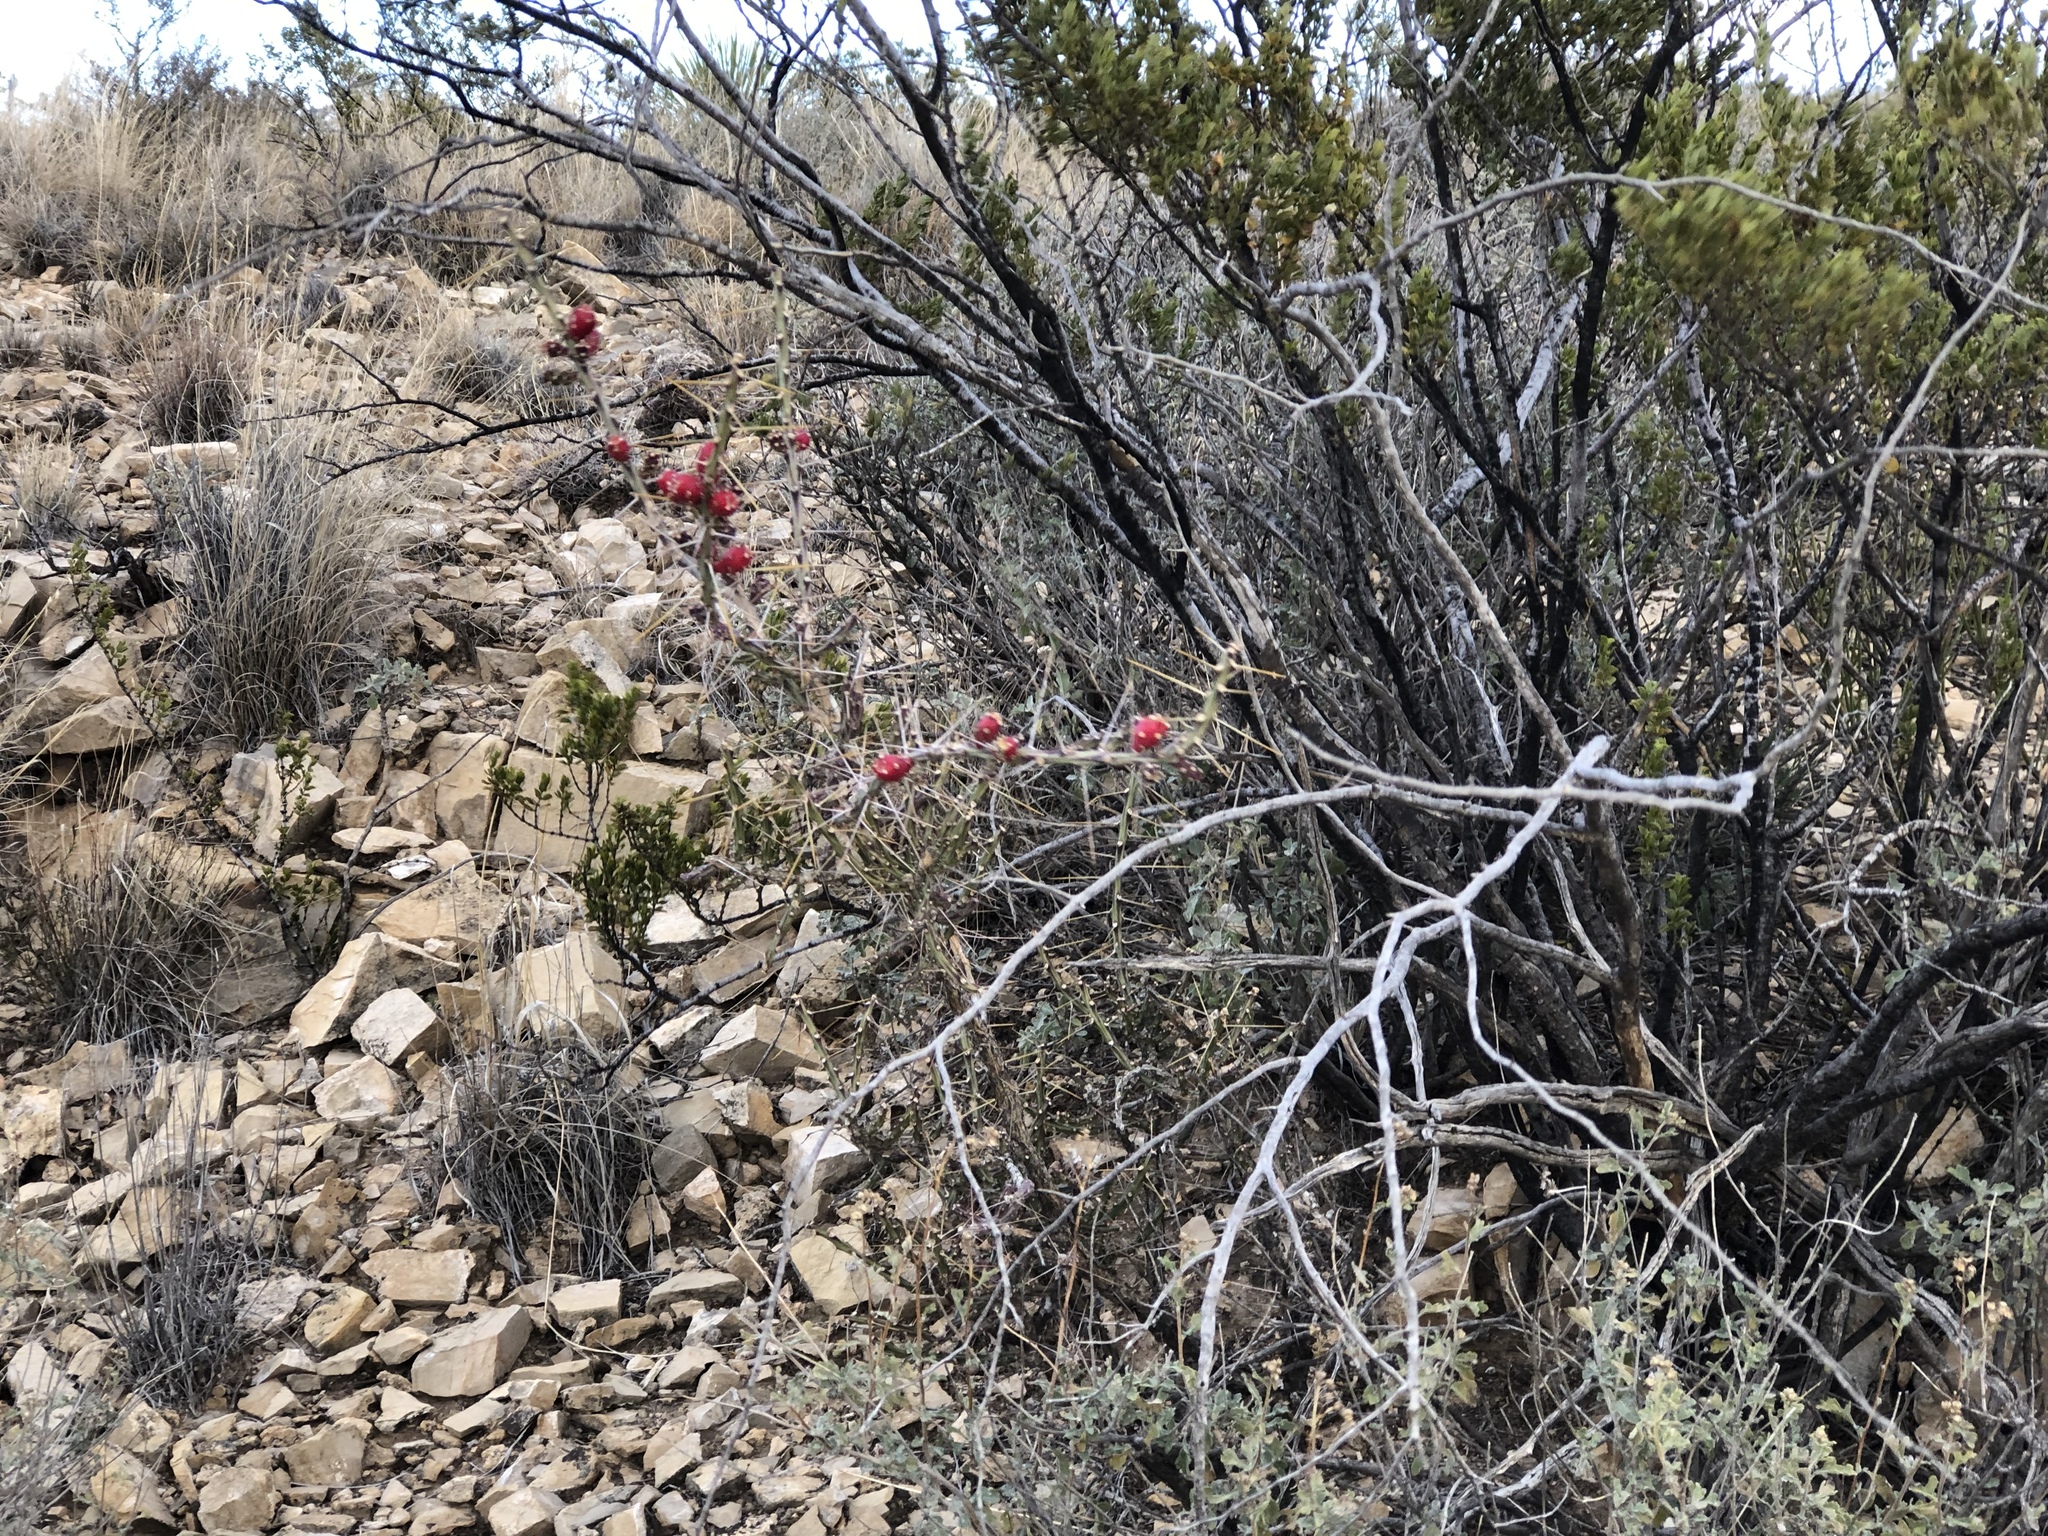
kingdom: Plantae
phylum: Tracheophyta
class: Magnoliopsida
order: Caryophyllales
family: Cactaceae
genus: Cylindropuntia
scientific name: Cylindropuntia leptocaulis
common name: Christmas cactus
